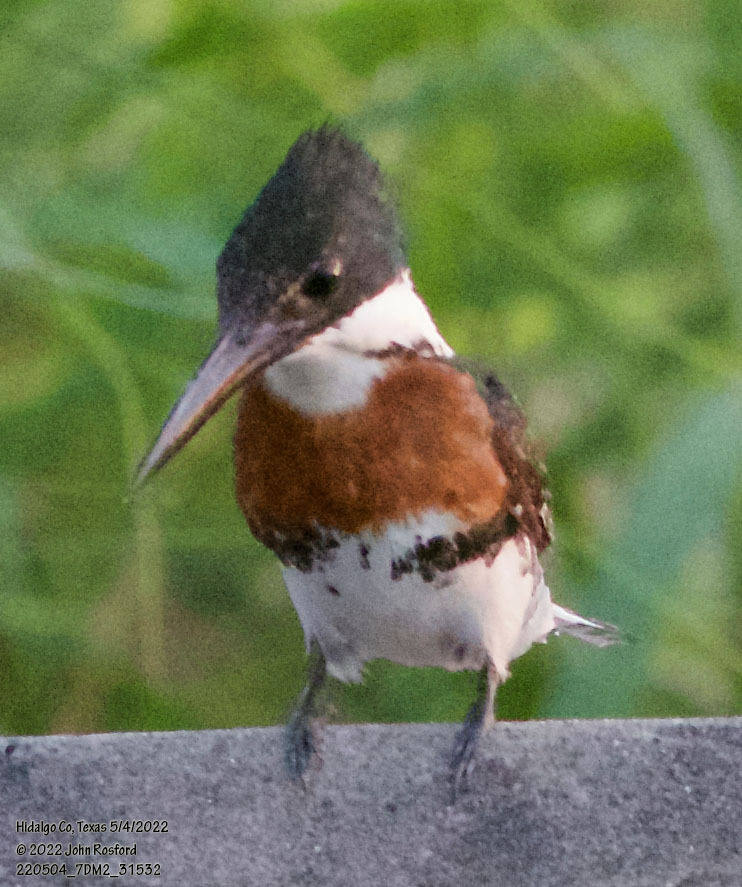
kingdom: Animalia
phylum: Chordata
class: Aves
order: Coraciiformes
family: Alcedinidae
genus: Chloroceryle
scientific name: Chloroceryle americana
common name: Green kingfisher
